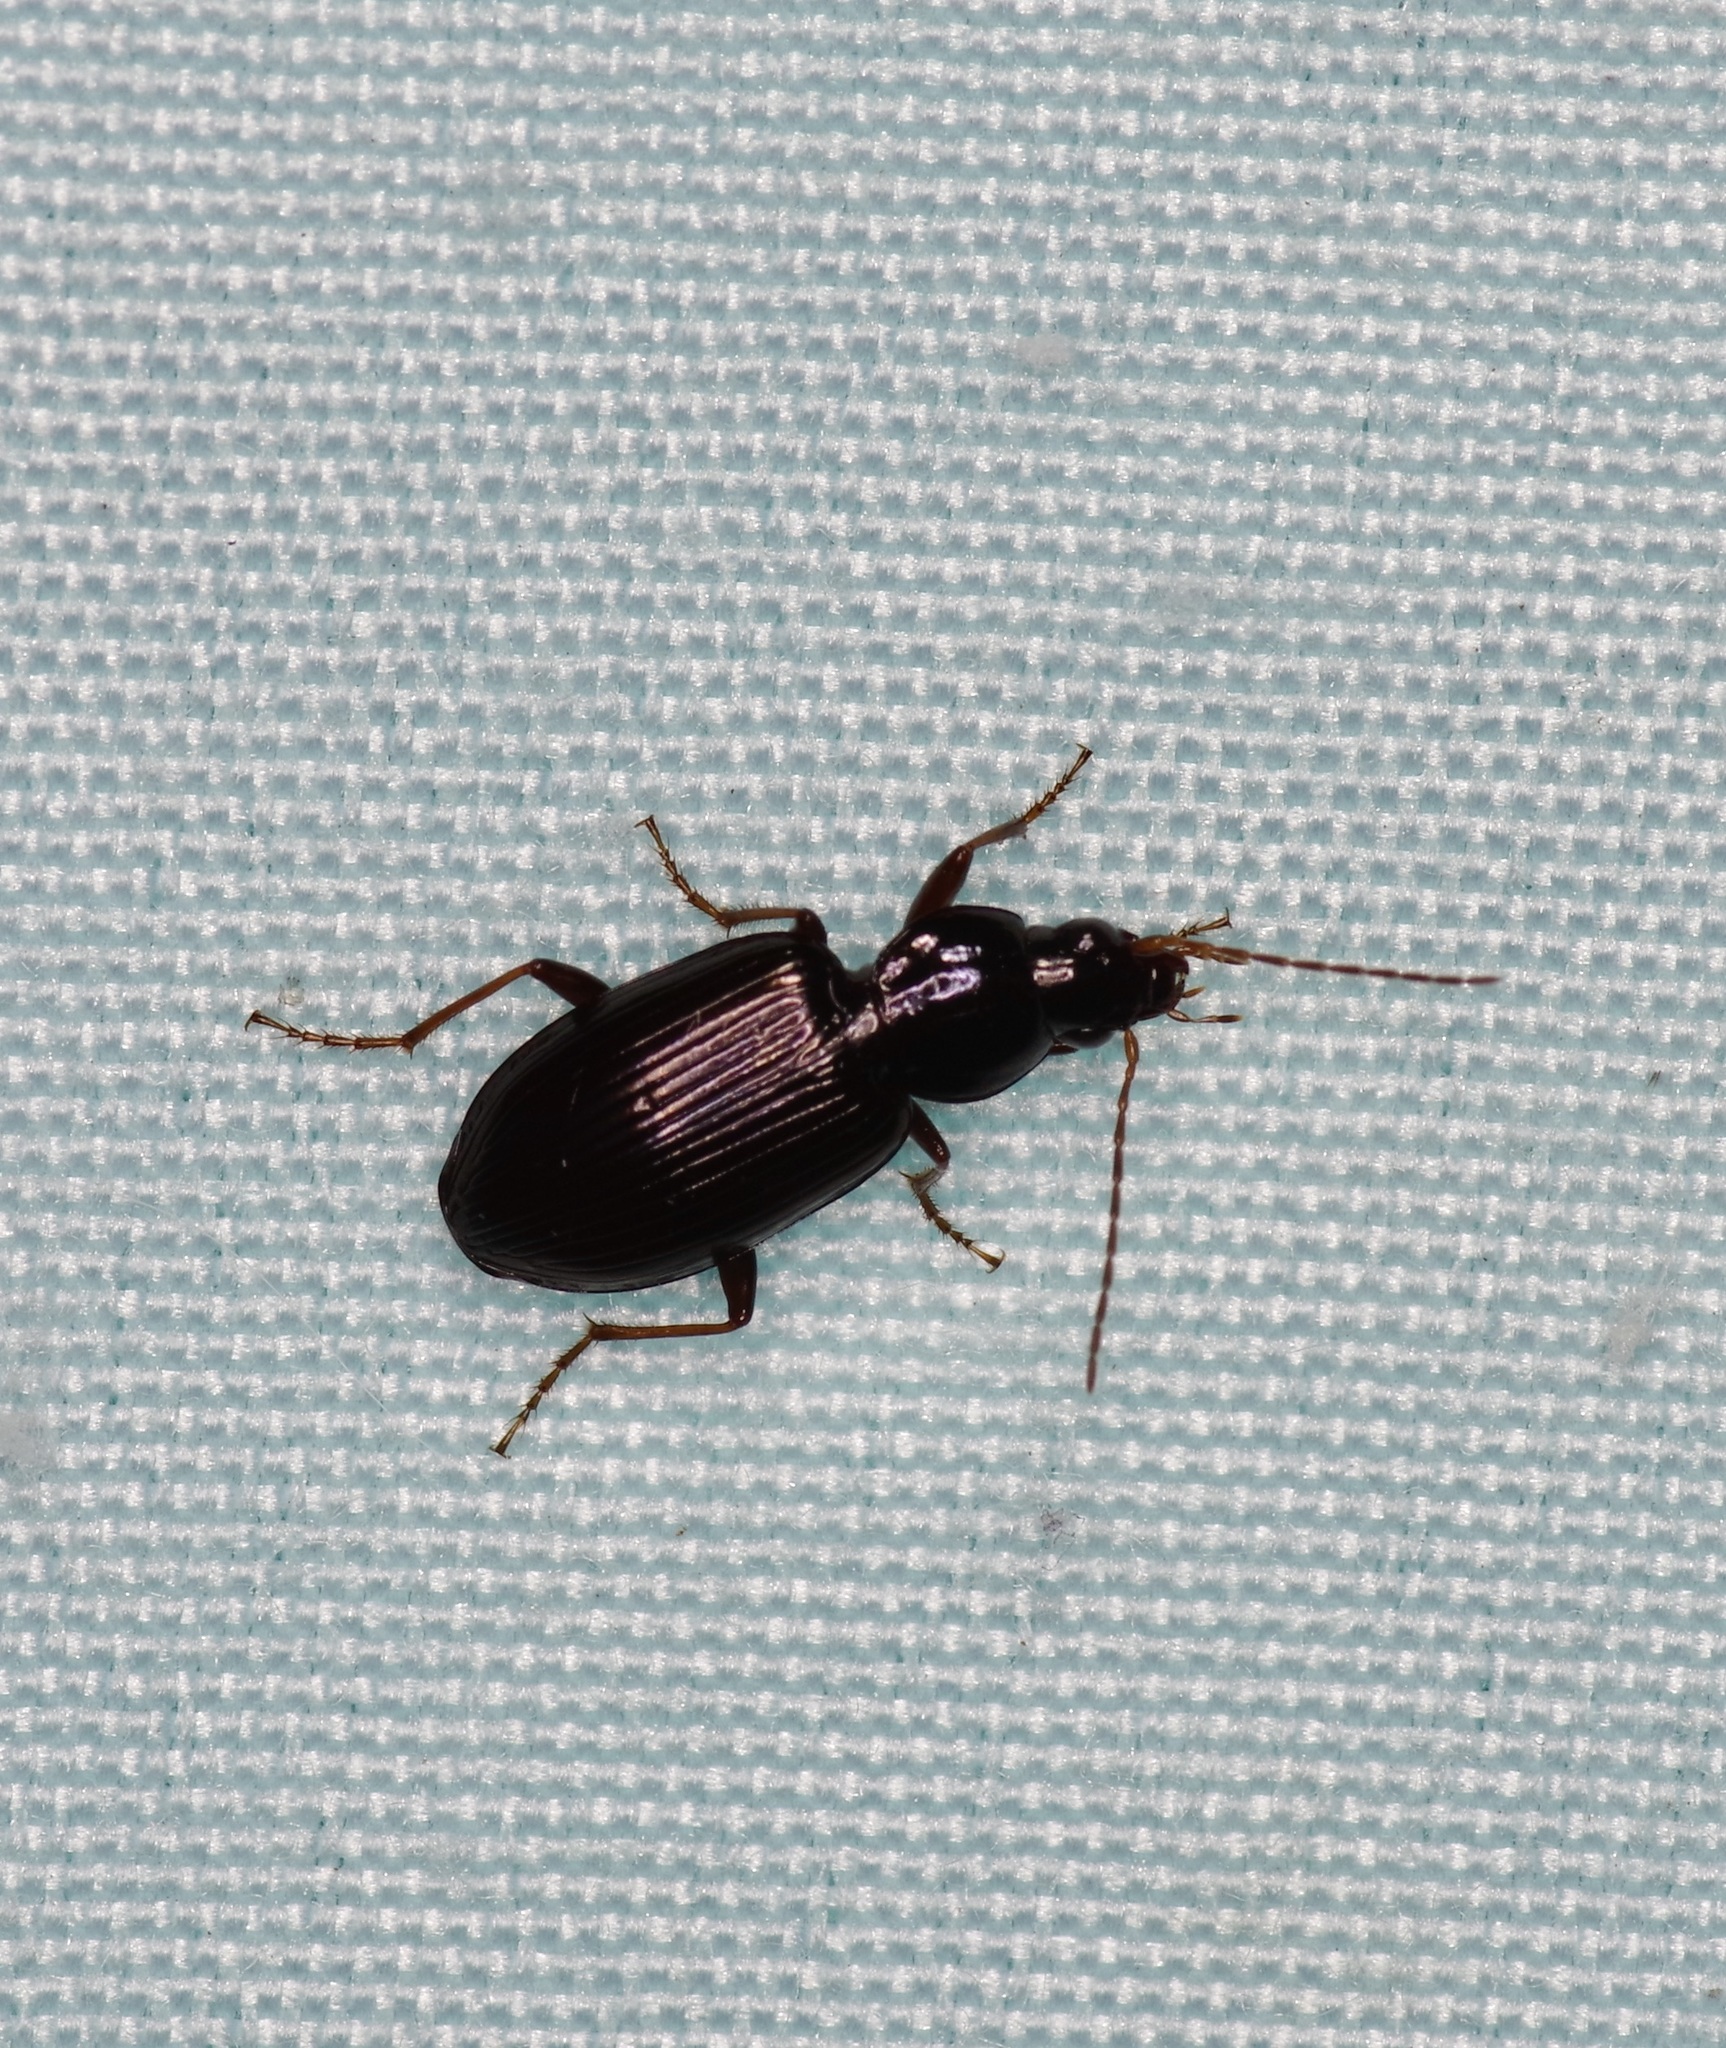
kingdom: Animalia
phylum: Arthropoda
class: Insecta
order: Coleoptera
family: Carabidae
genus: Agonum
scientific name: Agonum punctiforme
